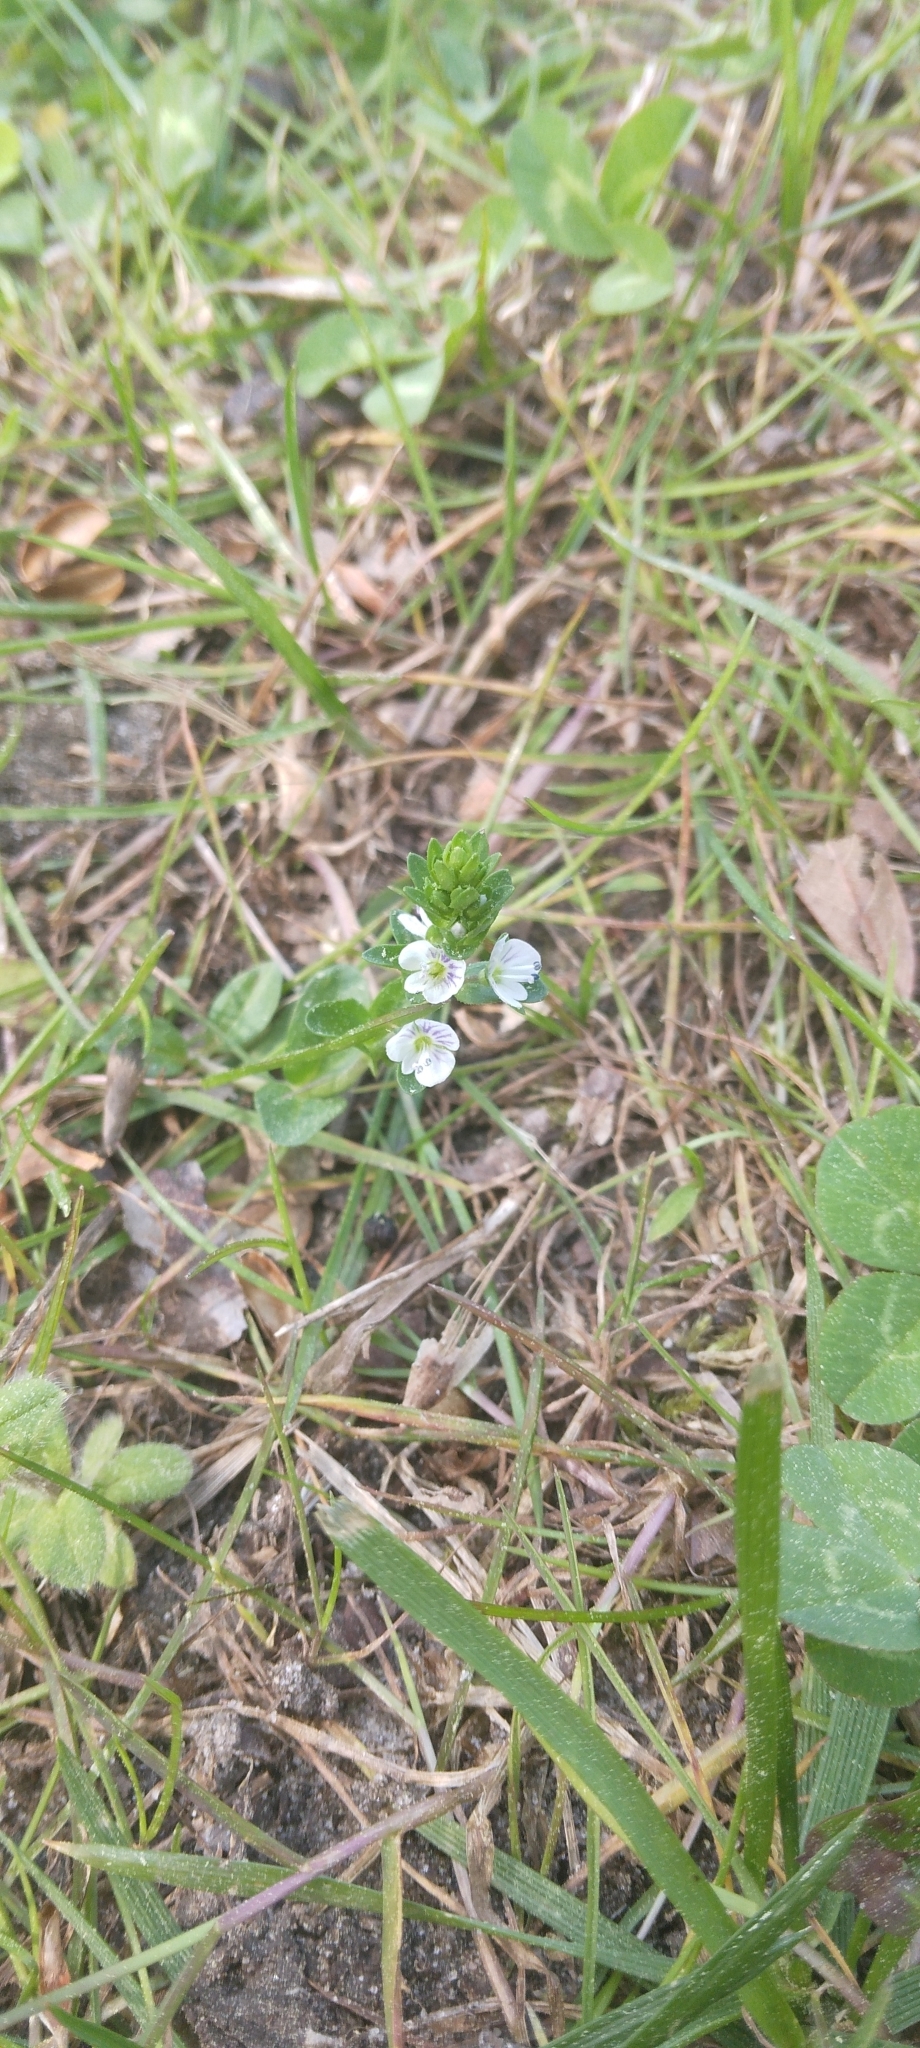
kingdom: Plantae
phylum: Tracheophyta
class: Magnoliopsida
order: Lamiales
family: Plantaginaceae
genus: Veronica
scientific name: Veronica serpyllifolia
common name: Thyme-leaved speedwell
